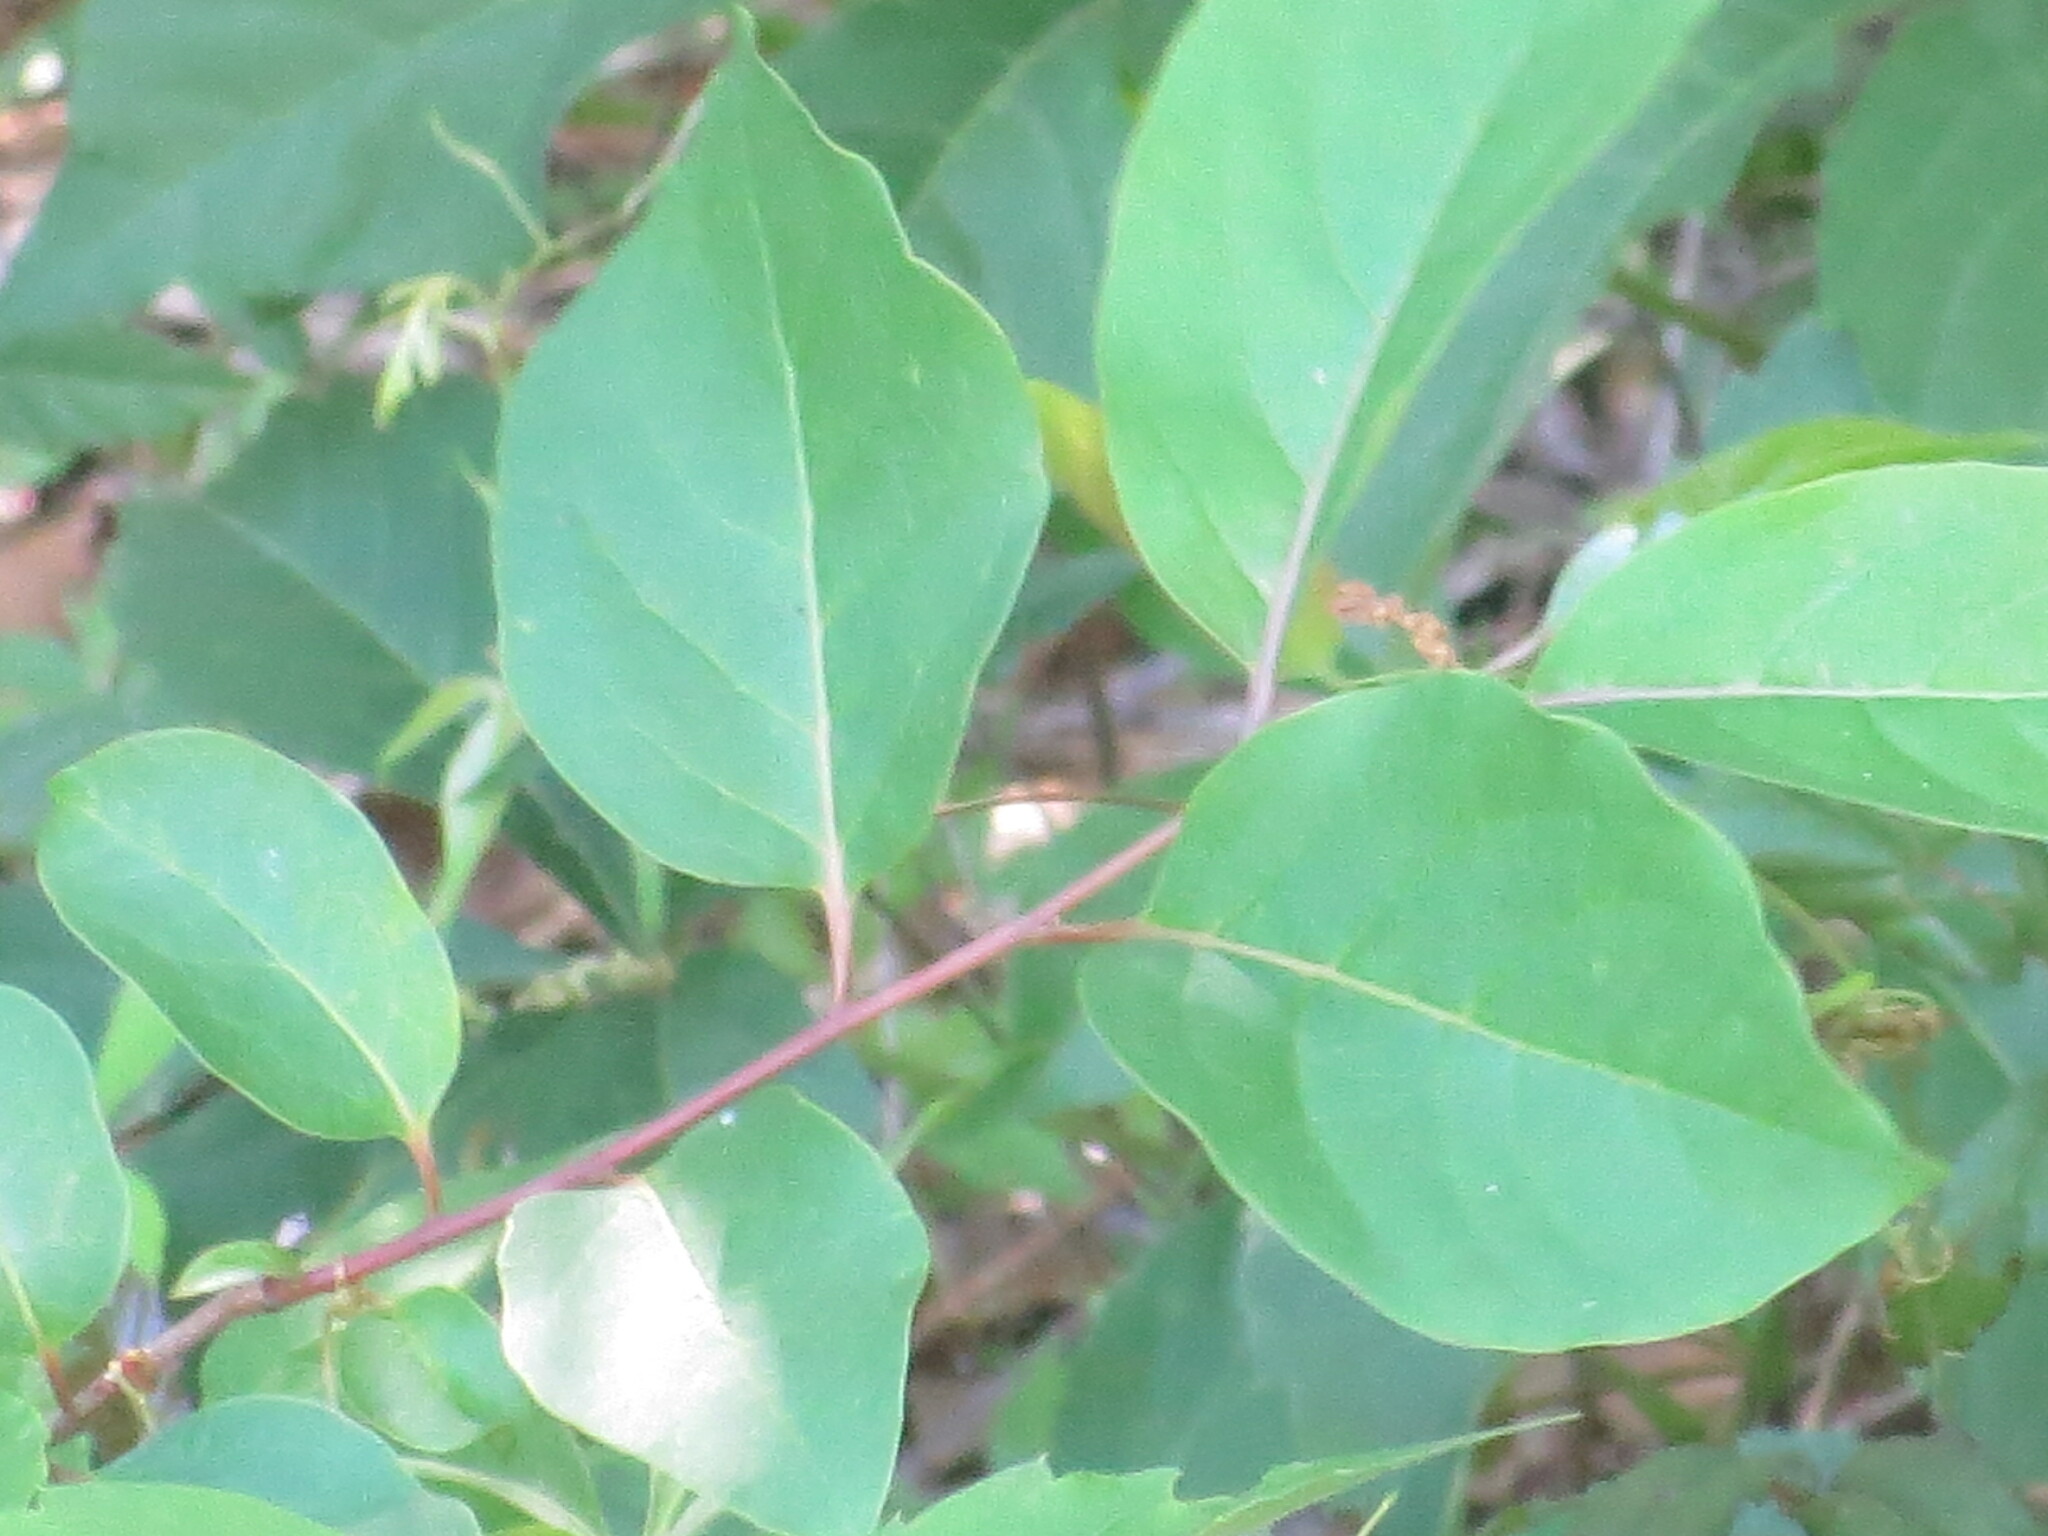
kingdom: Plantae
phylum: Tracheophyta
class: Magnoliopsida
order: Ericales
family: Ebenaceae
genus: Diospyros
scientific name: Diospyros virginiana
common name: Persimmon
